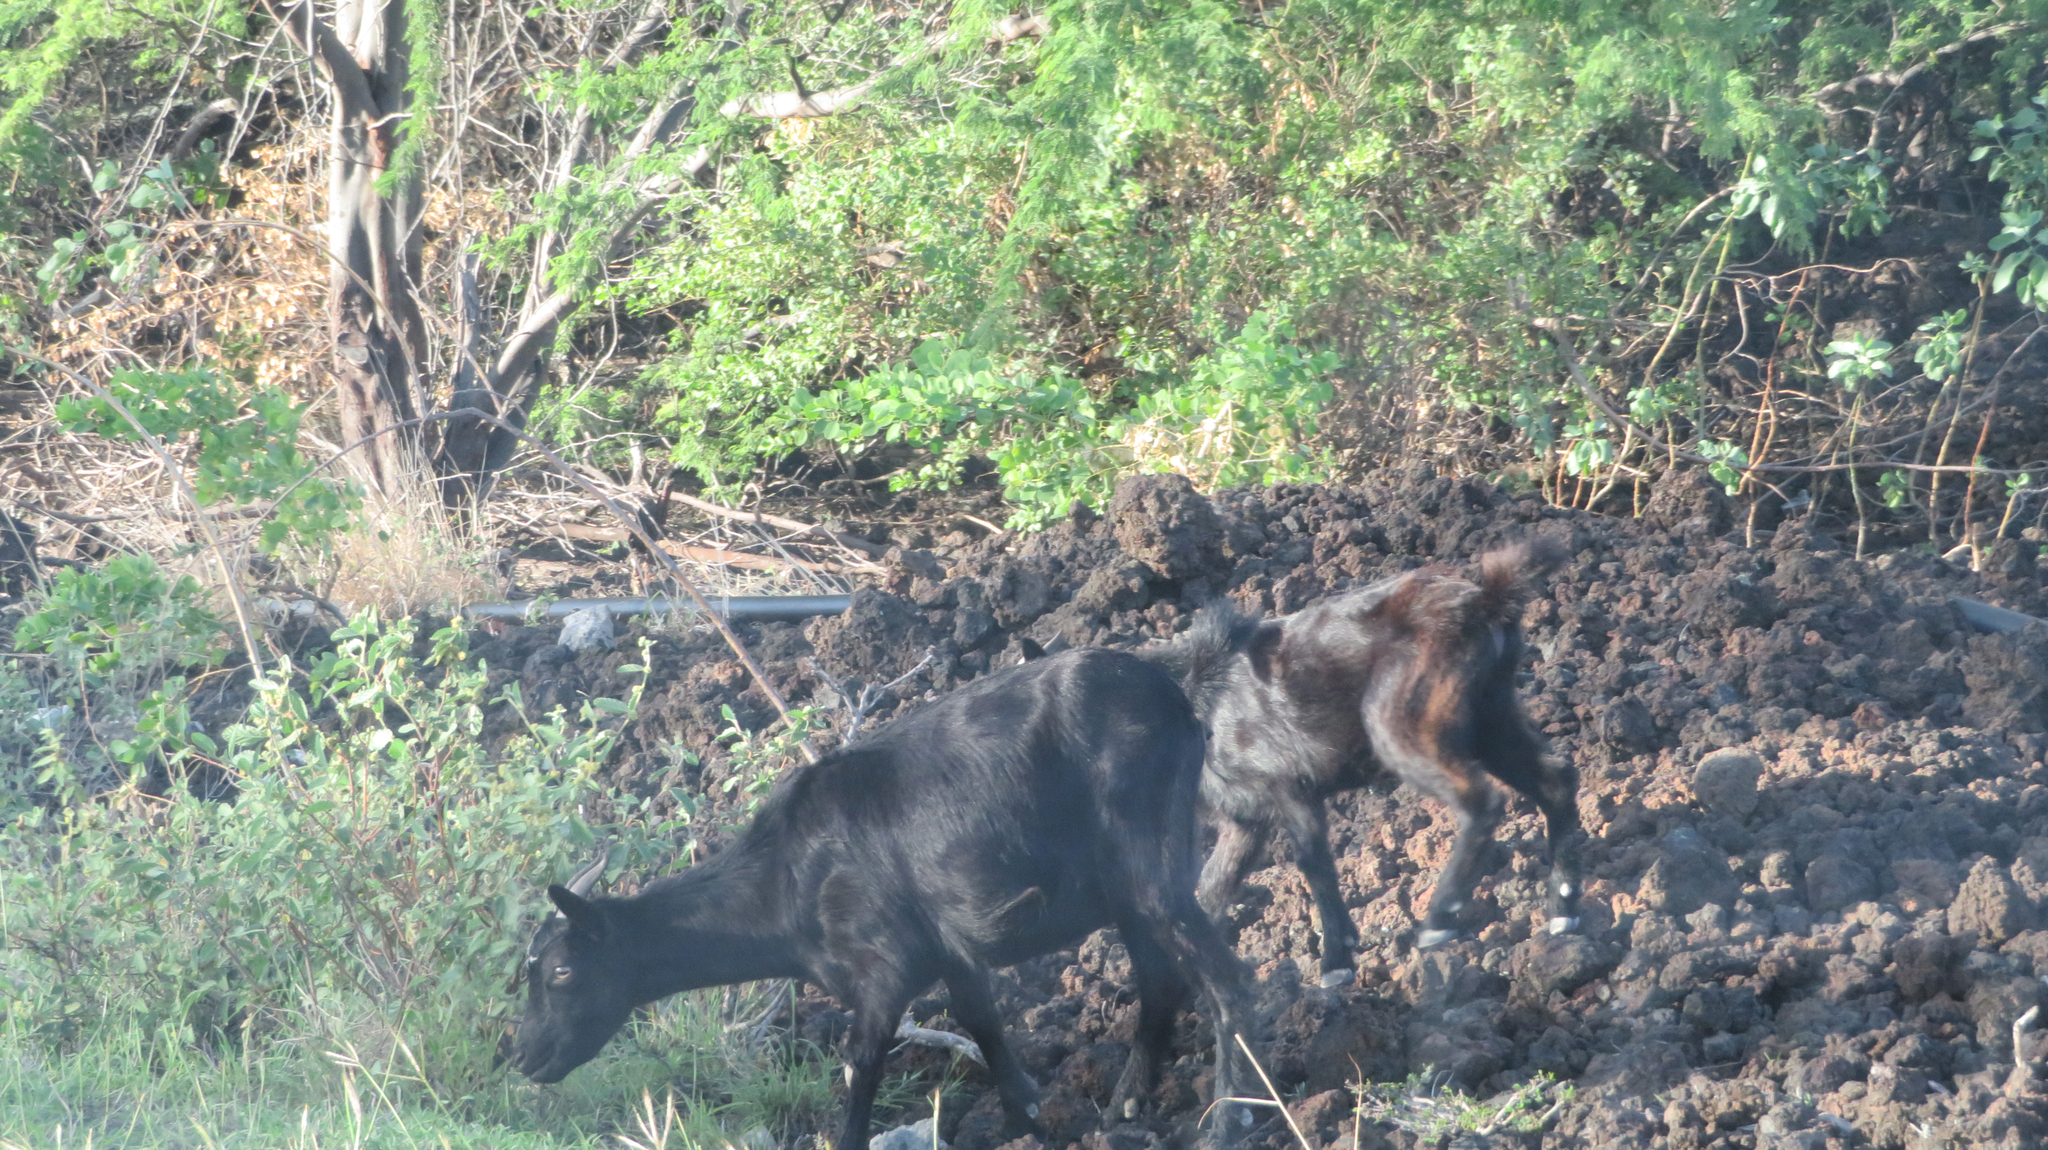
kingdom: Animalia
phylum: Chordata
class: Mammalia
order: Artiodactyla
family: Bovidae
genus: Capra
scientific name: Capra hircus
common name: Domestic goat
